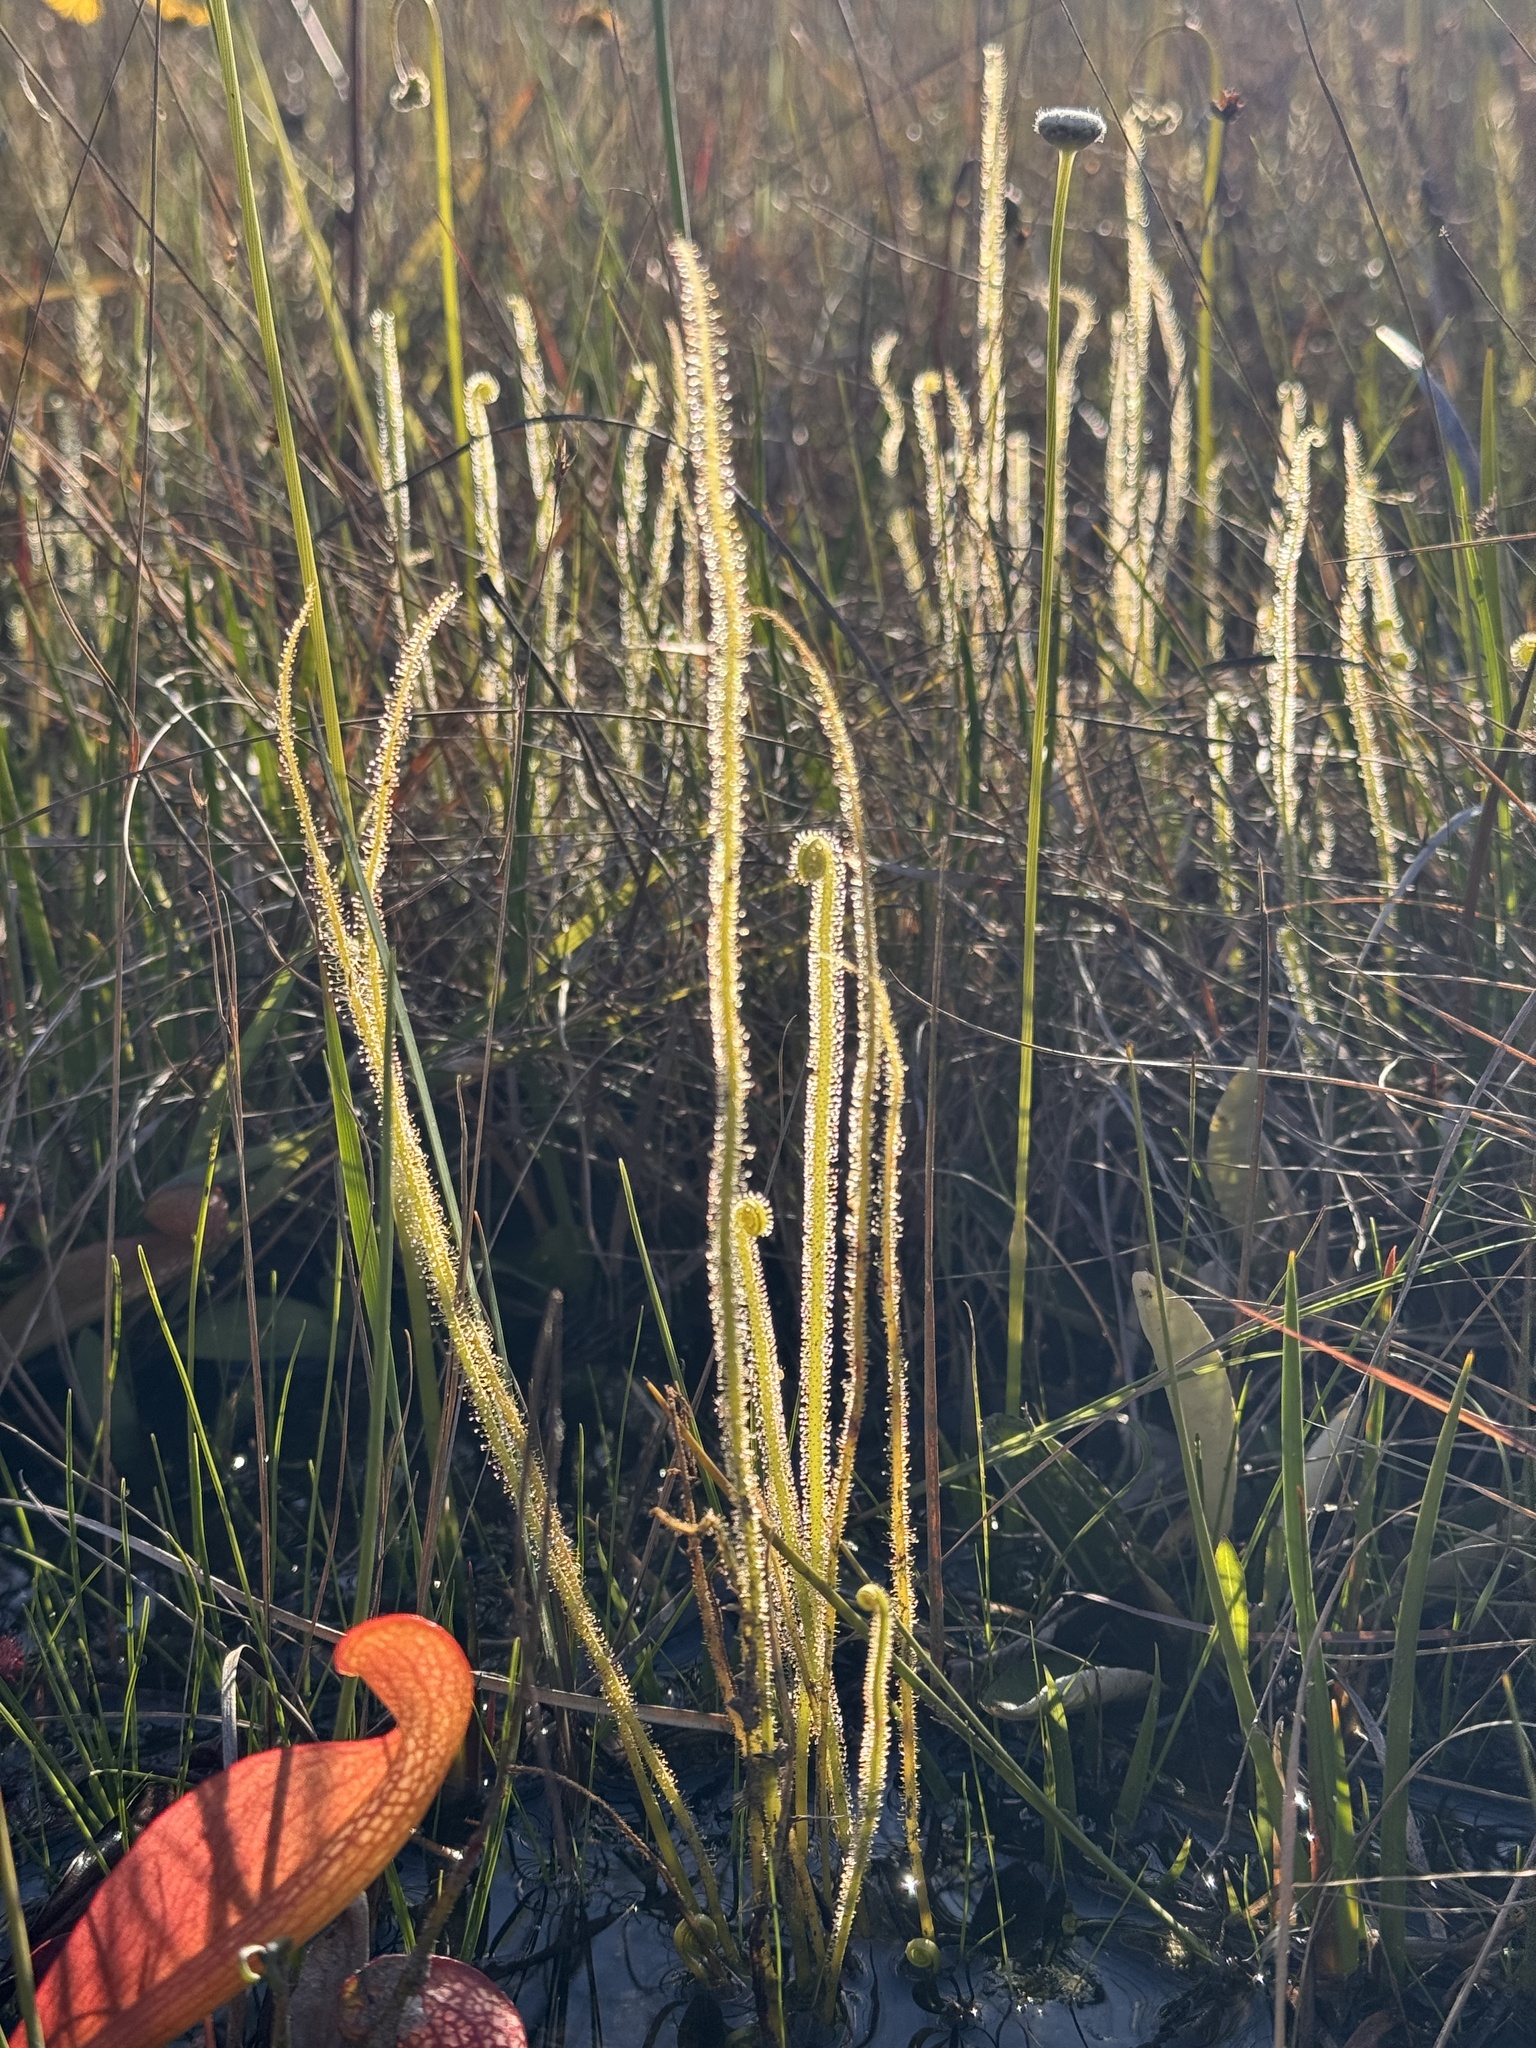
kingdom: Plantae
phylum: Tracheophyta
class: Magnoliopsida
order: Caryophyllales
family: Droseraceae
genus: Drosera
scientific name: Drosera filiformis
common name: Dew-thread
